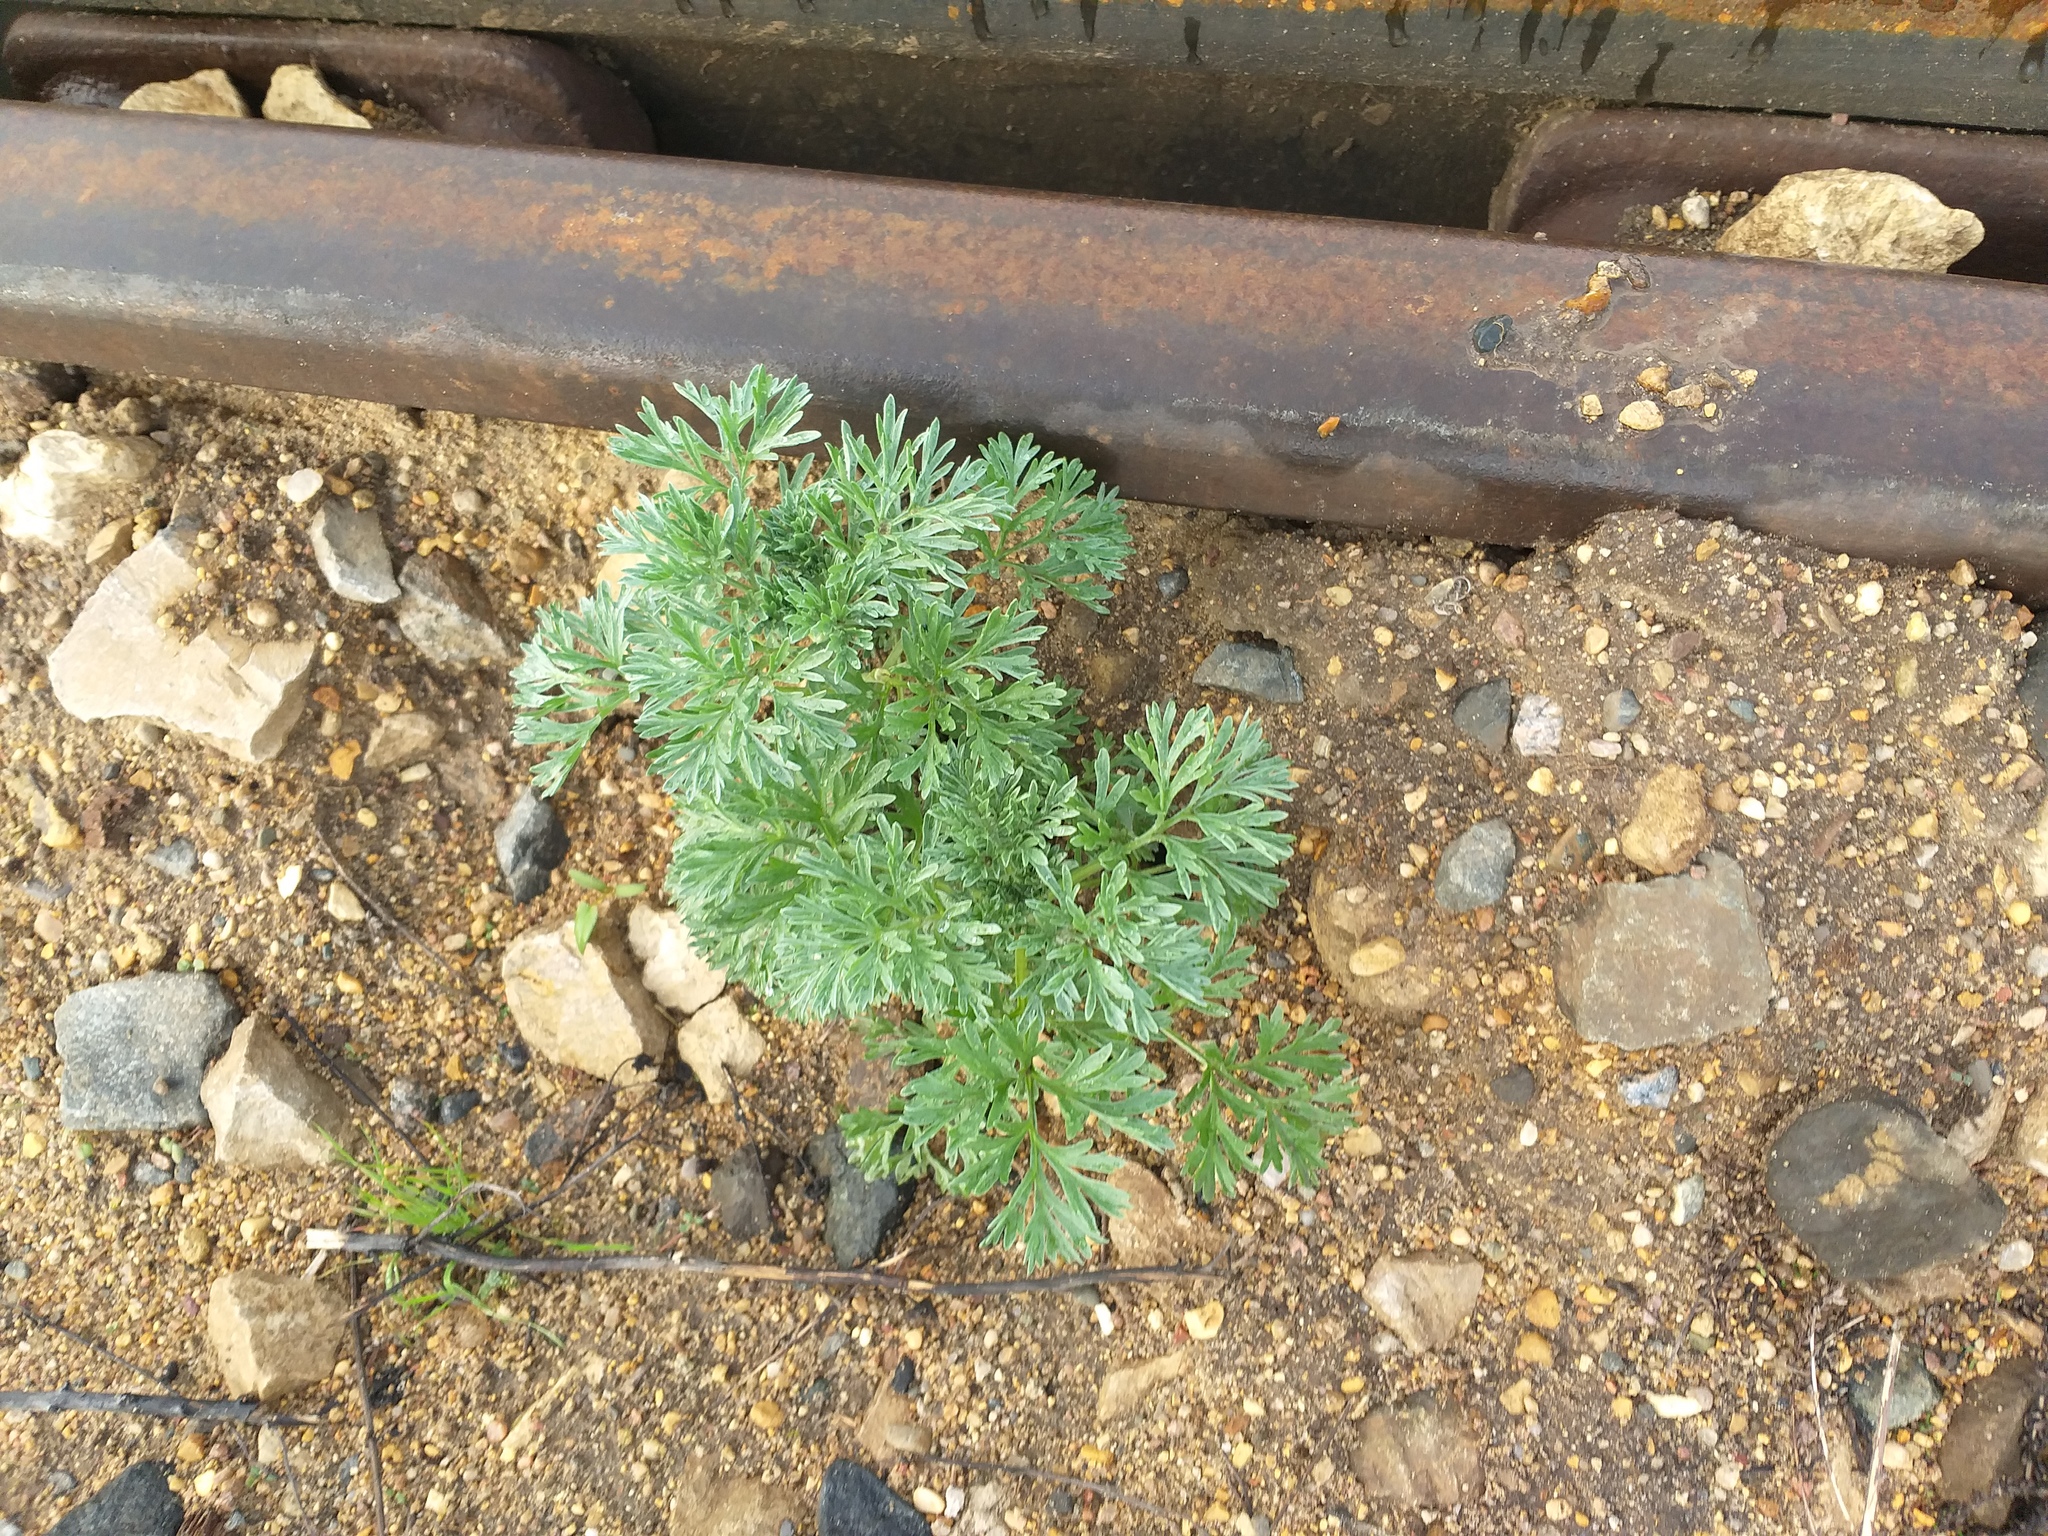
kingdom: Plantae
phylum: Tracheophyta
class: Magnoliopsida
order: Asterales
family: Asteraceae
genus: Artemisia
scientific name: Artemisia absinthium
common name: Wormwood
